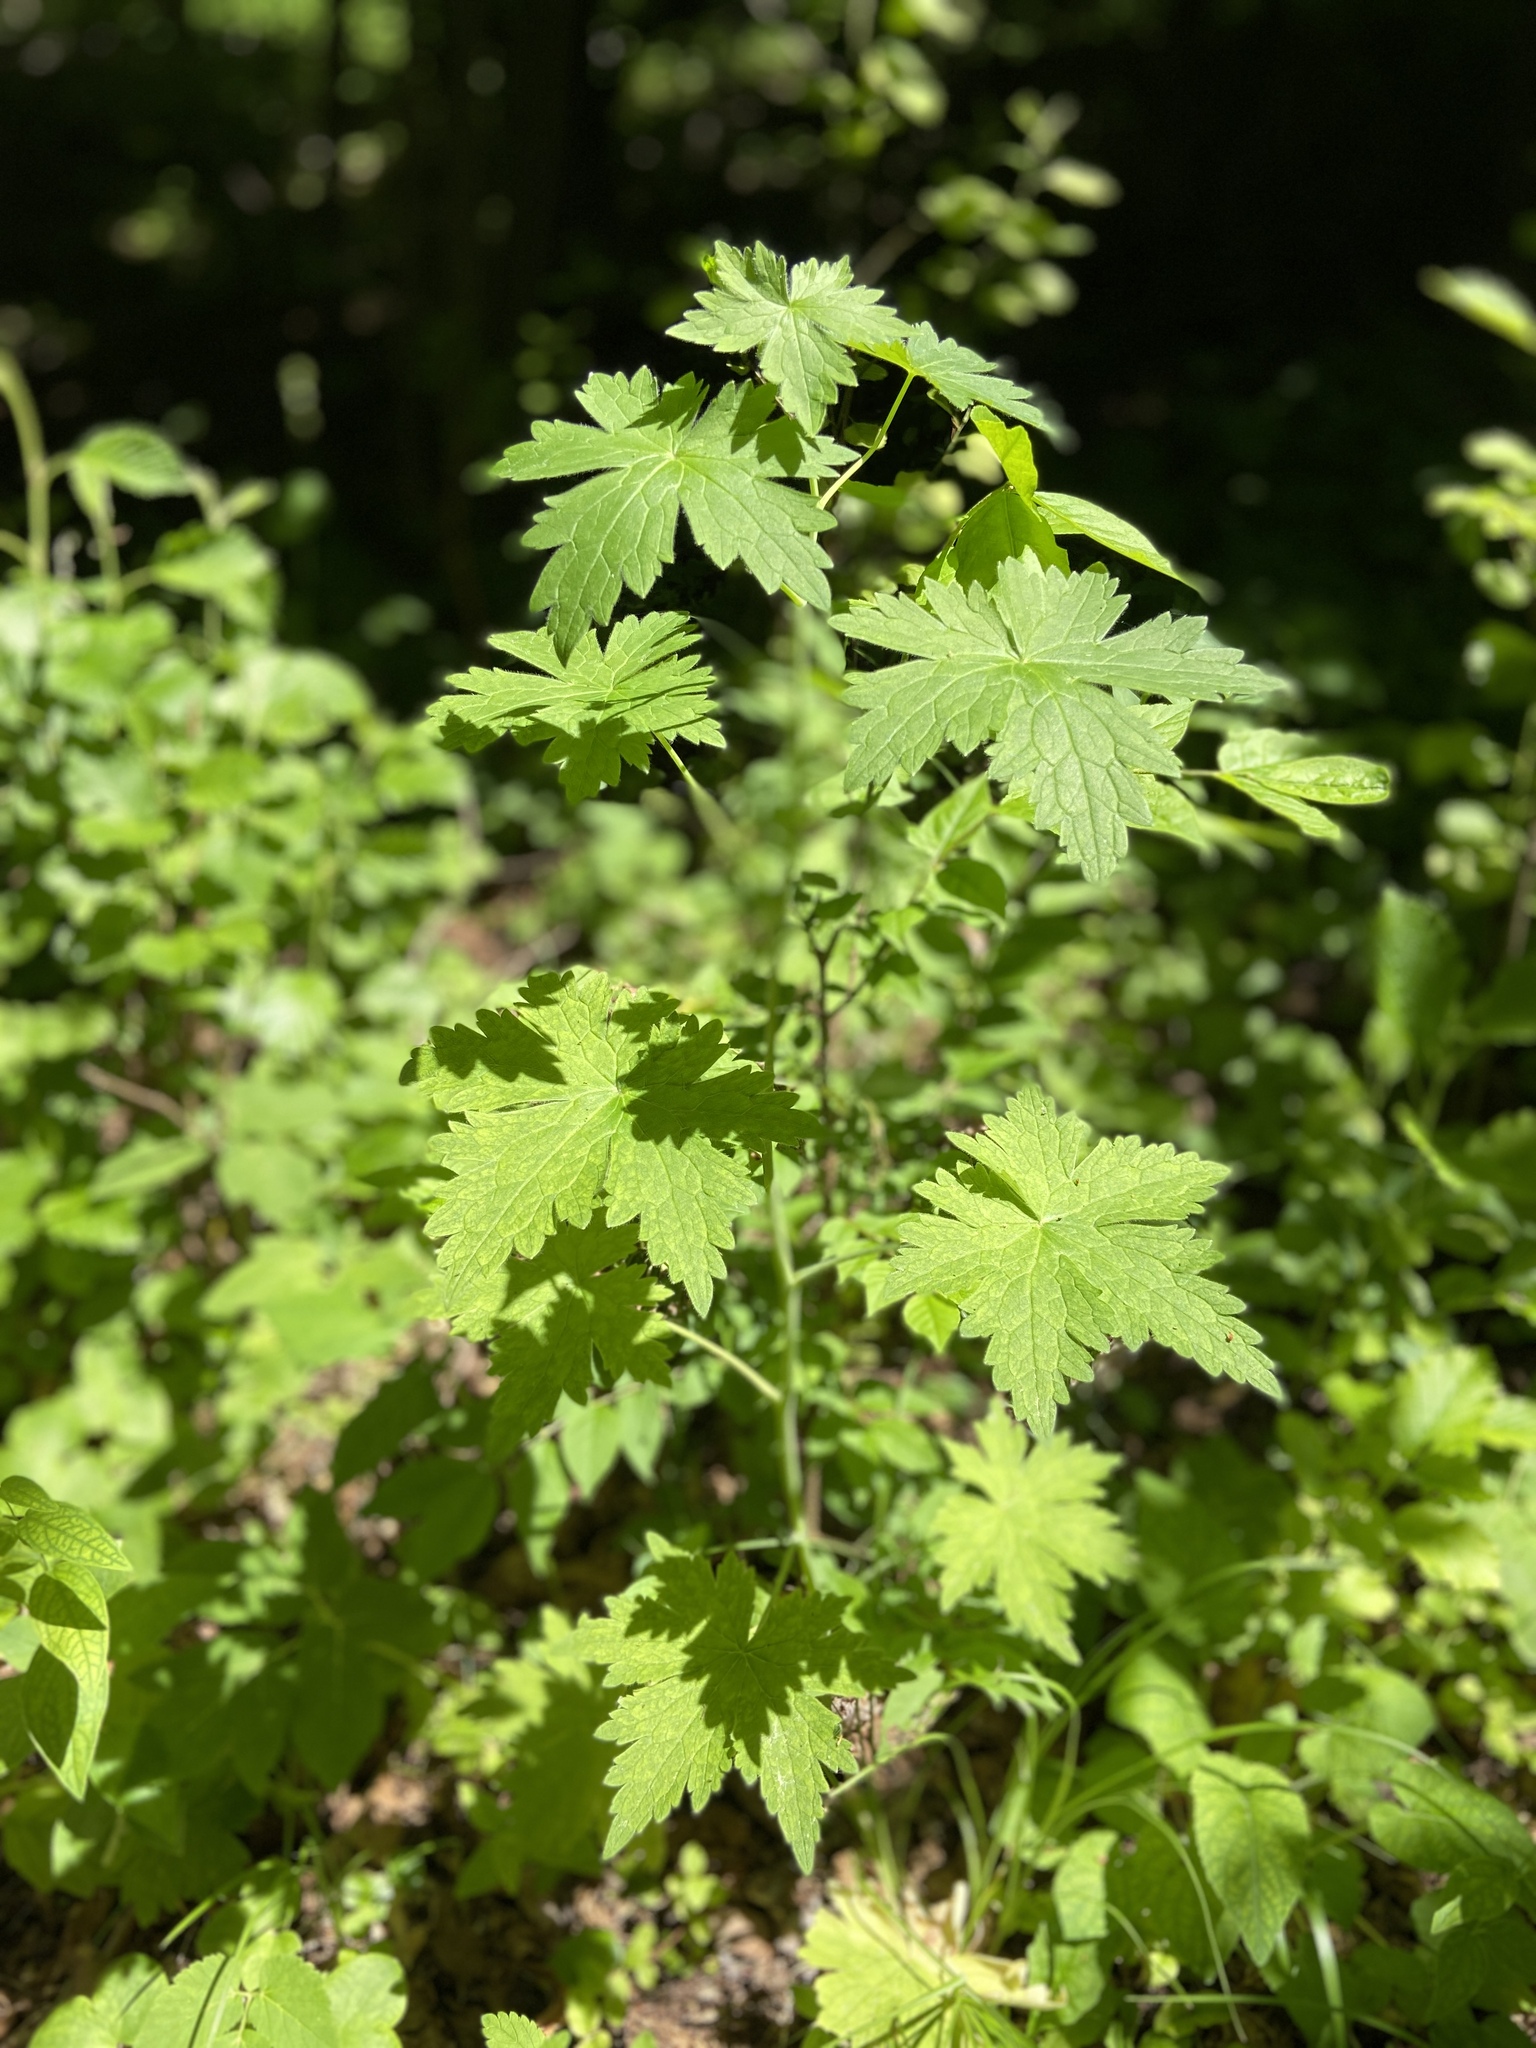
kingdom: Plantae
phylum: Tracheophyta
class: Magnoliopsida
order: Ranunculales
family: Ranunculaceae
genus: Delphinium
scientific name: Delphinium elatum
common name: Candle larkspur
